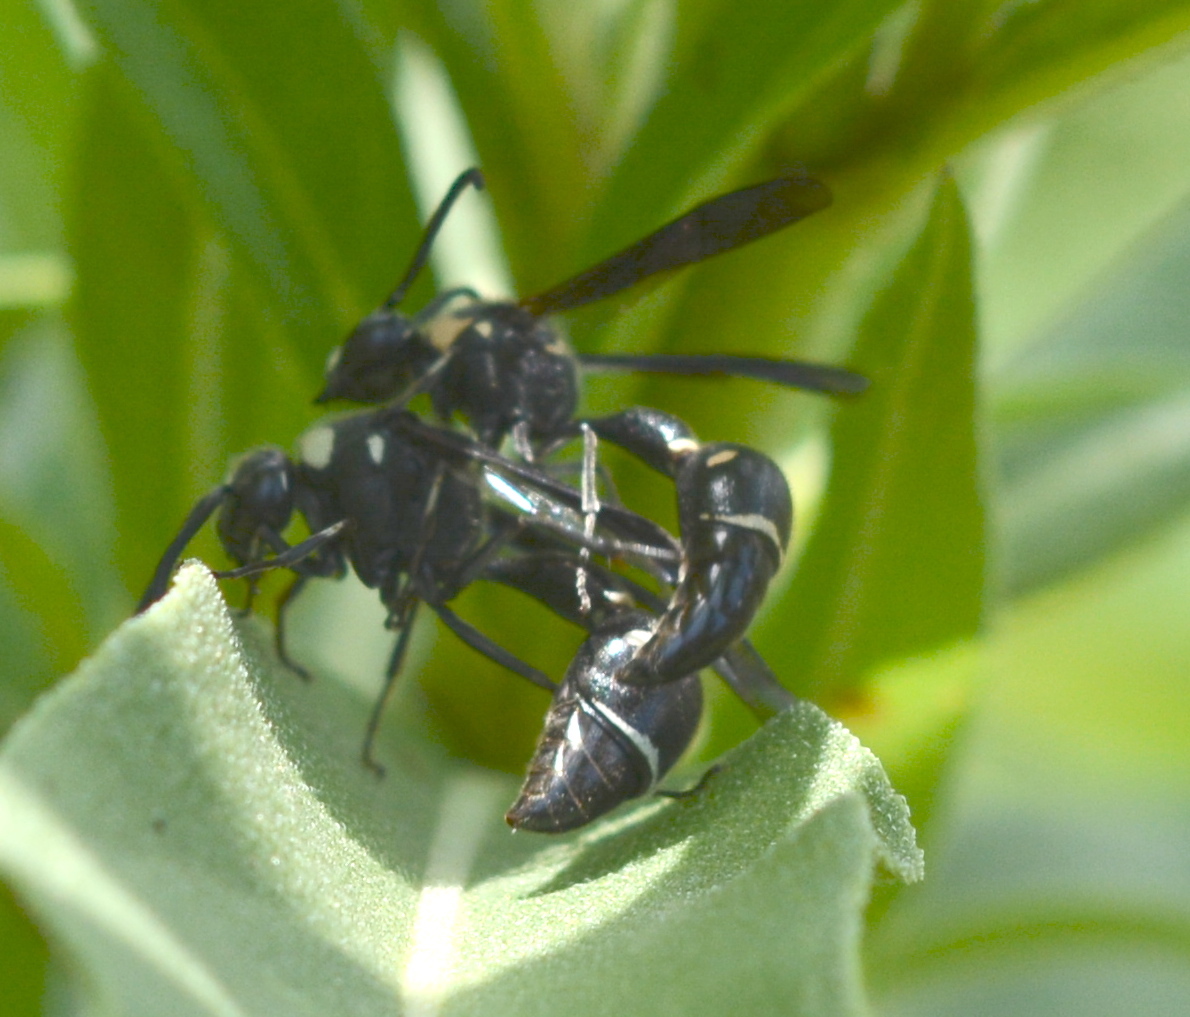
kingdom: Animalia
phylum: Arthropoda
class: Insecta
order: Hymenoptera
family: Vespidae
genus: Eumenes
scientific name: Eumenes fraternus
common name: Fraternal potter wasp
